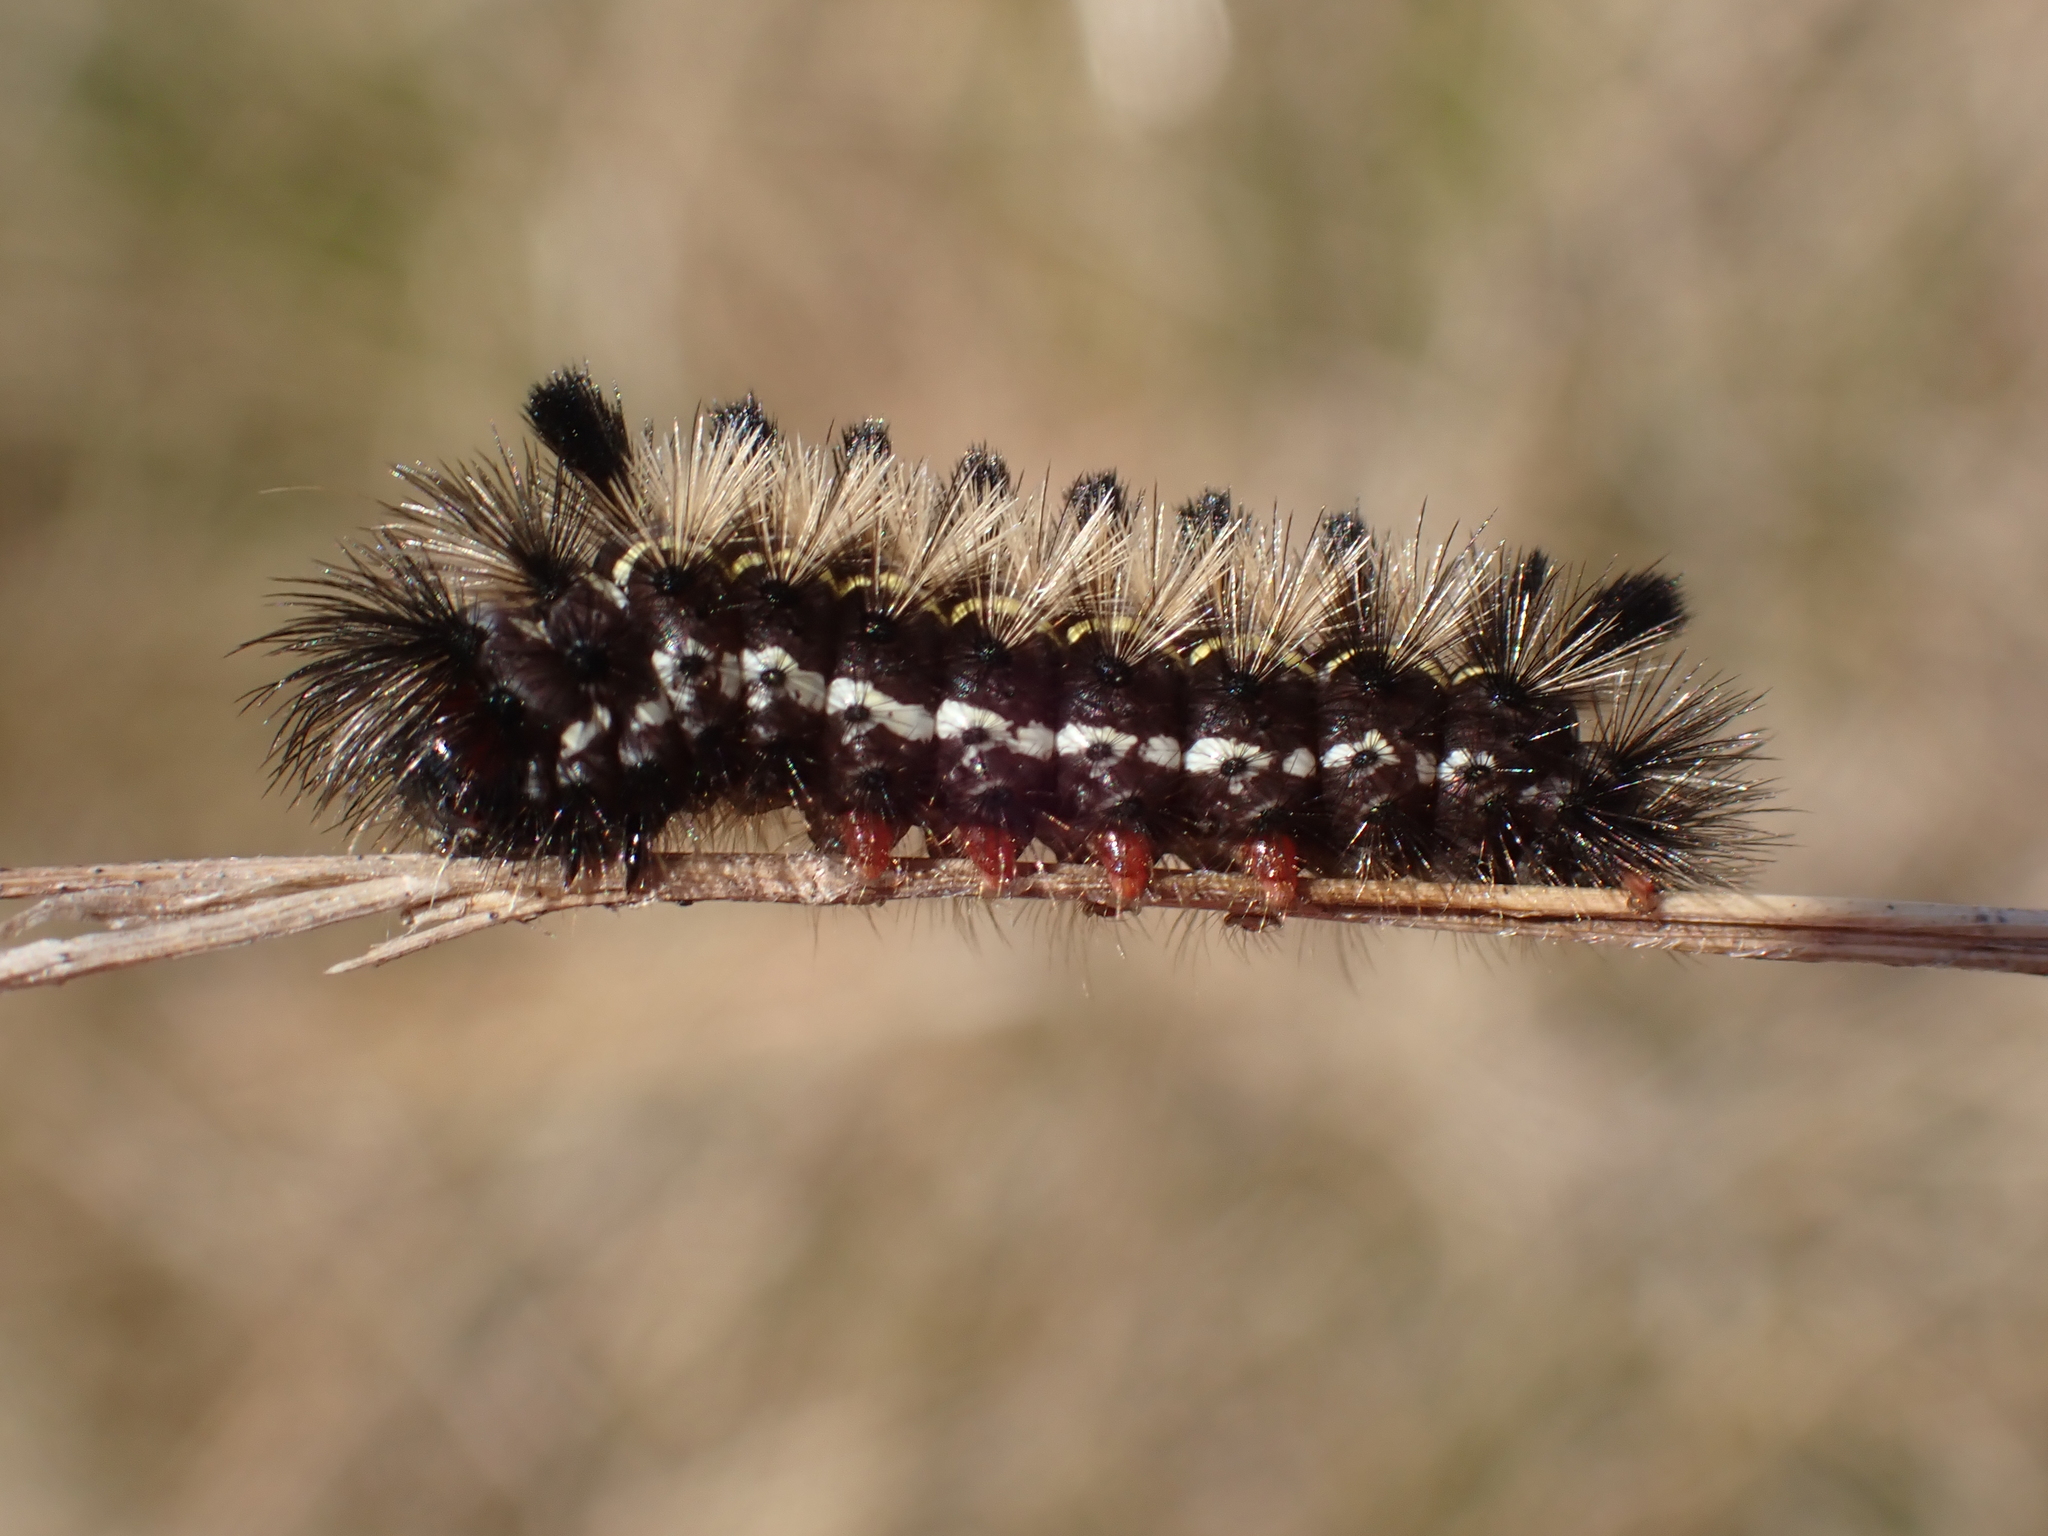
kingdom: Animalia
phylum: Arthropoda
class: Insecta
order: Lepidoptera
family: Erebidae
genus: Ctenucha
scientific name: Ctenucha virginica
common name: Virginia ctenucha moth
